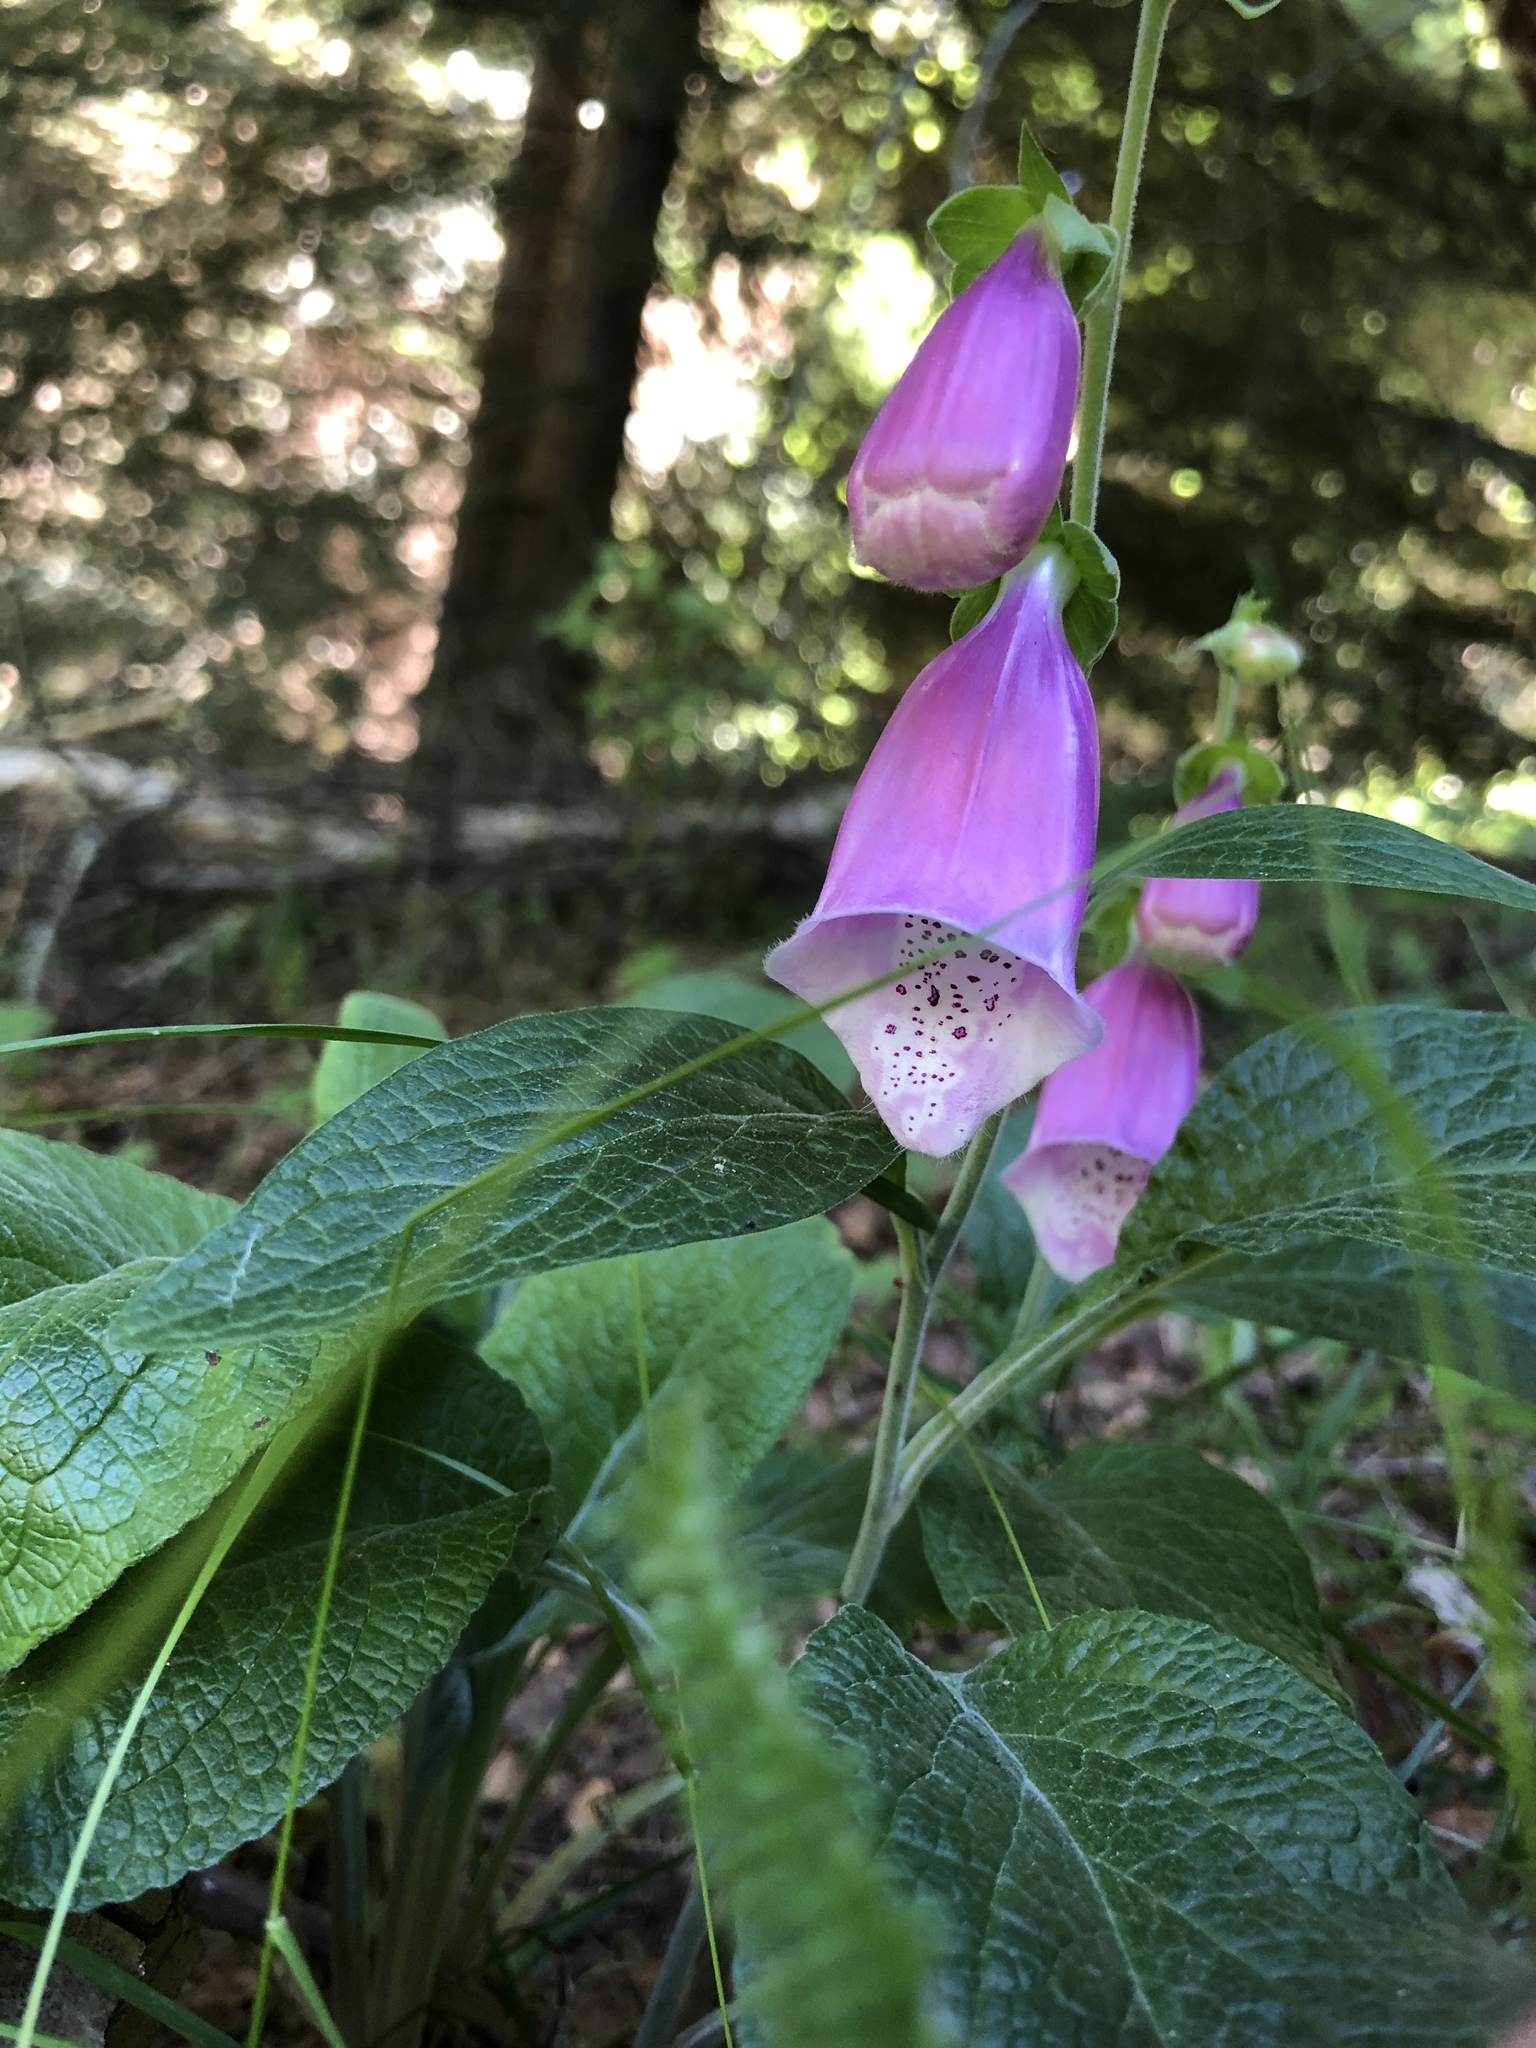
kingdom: Plantae
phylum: Tracheophyta
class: Magnoliopsida
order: Lamiales
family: Plantaginaceae
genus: Digitalis
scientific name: Digitalis purpurea
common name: Foxglove
